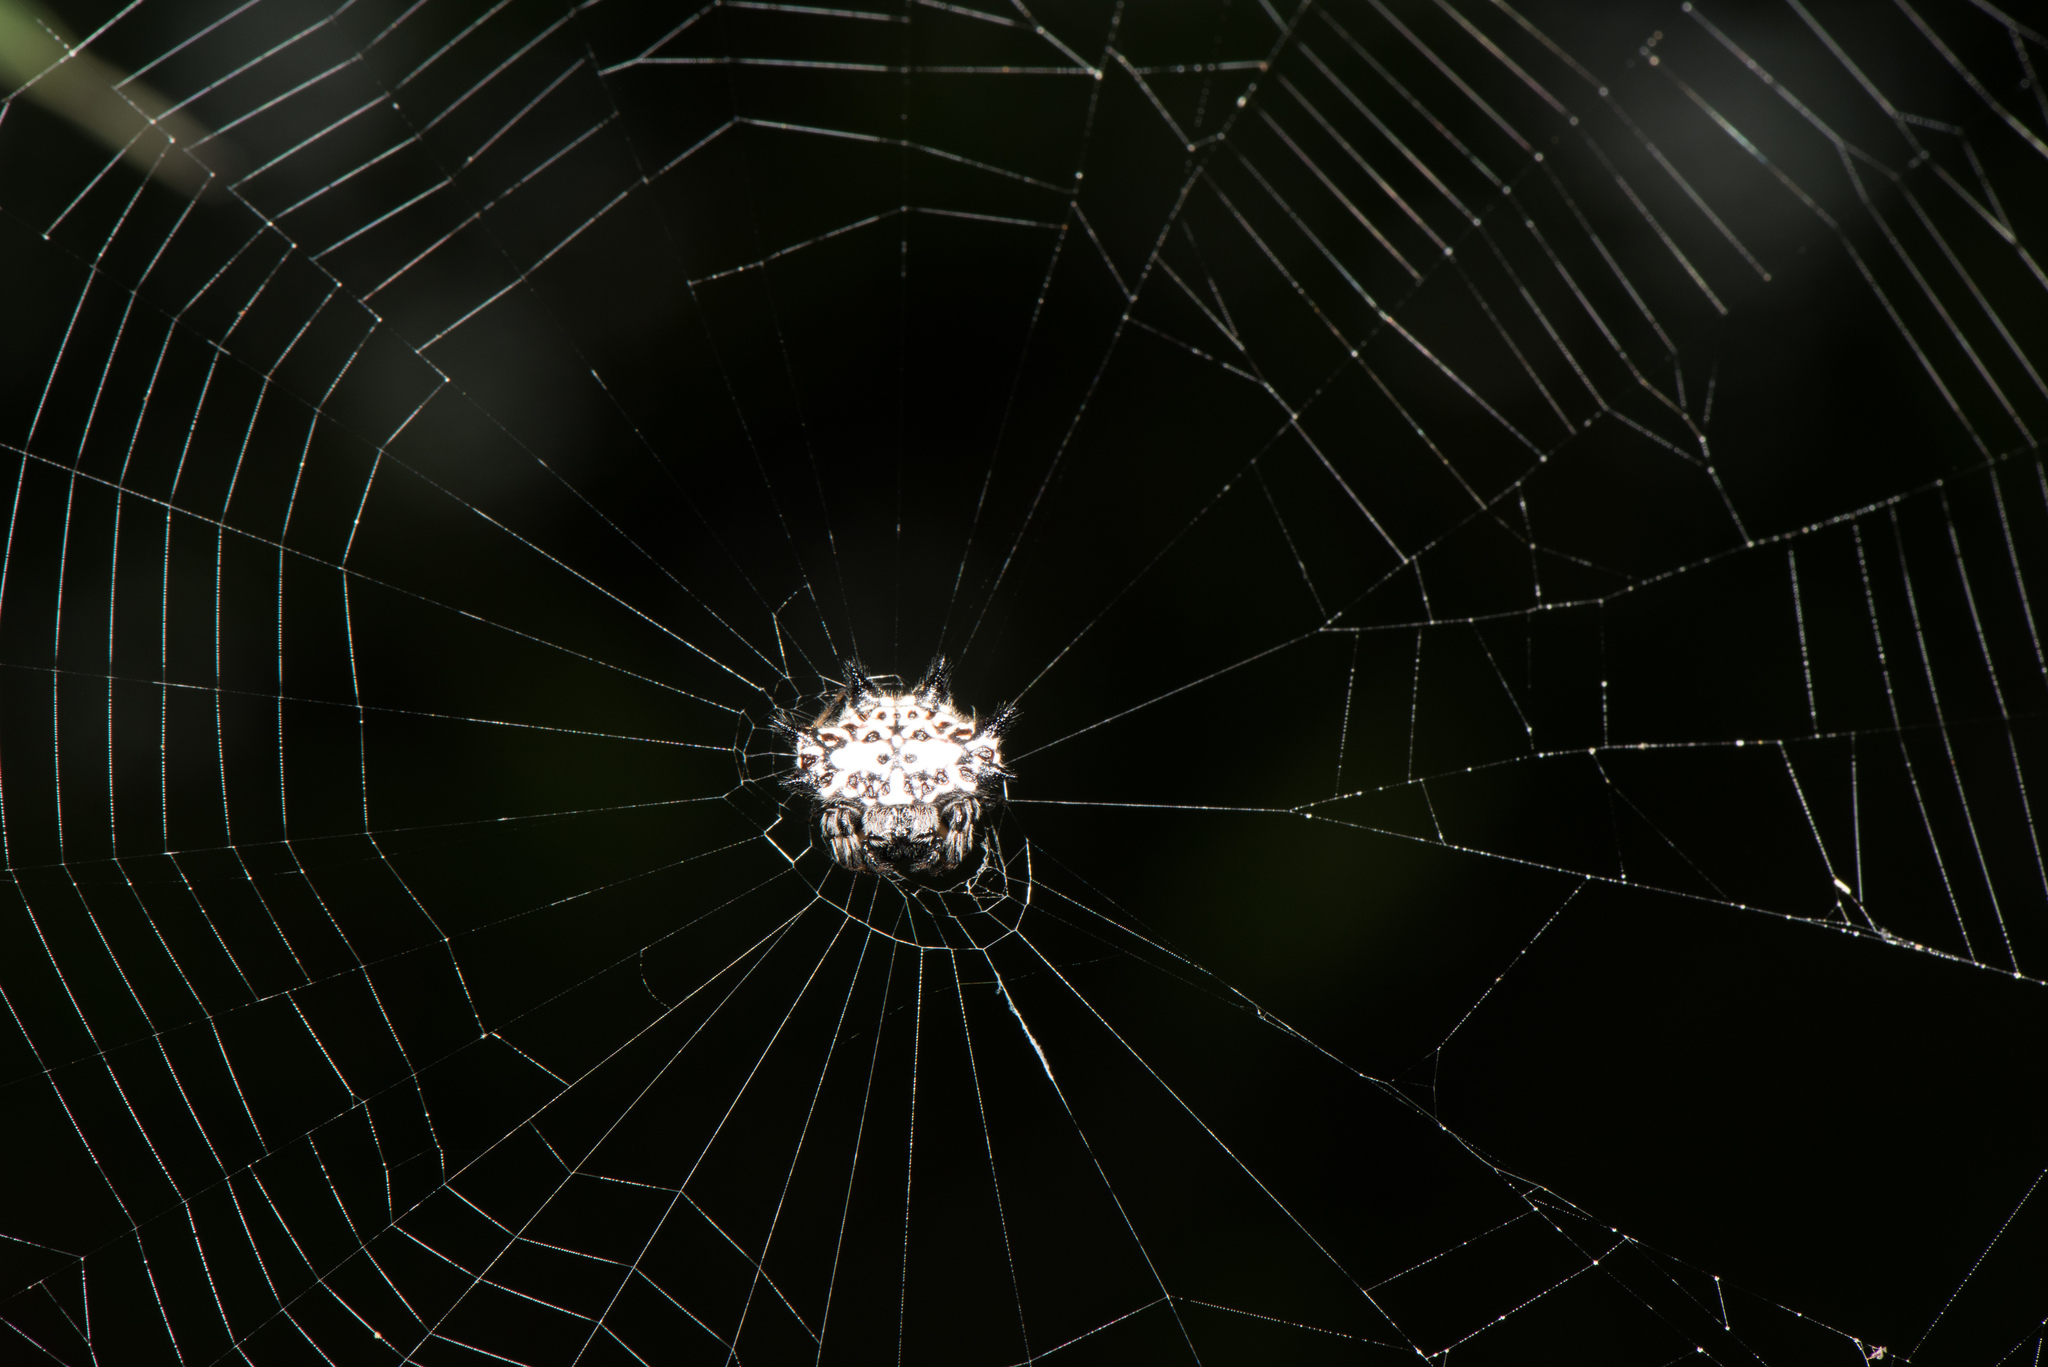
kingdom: Animalia
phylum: Arthropoda
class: Arachnida
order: Araneae
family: Araneidae
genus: Gasteracantha
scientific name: Gasteracantha kuhli
